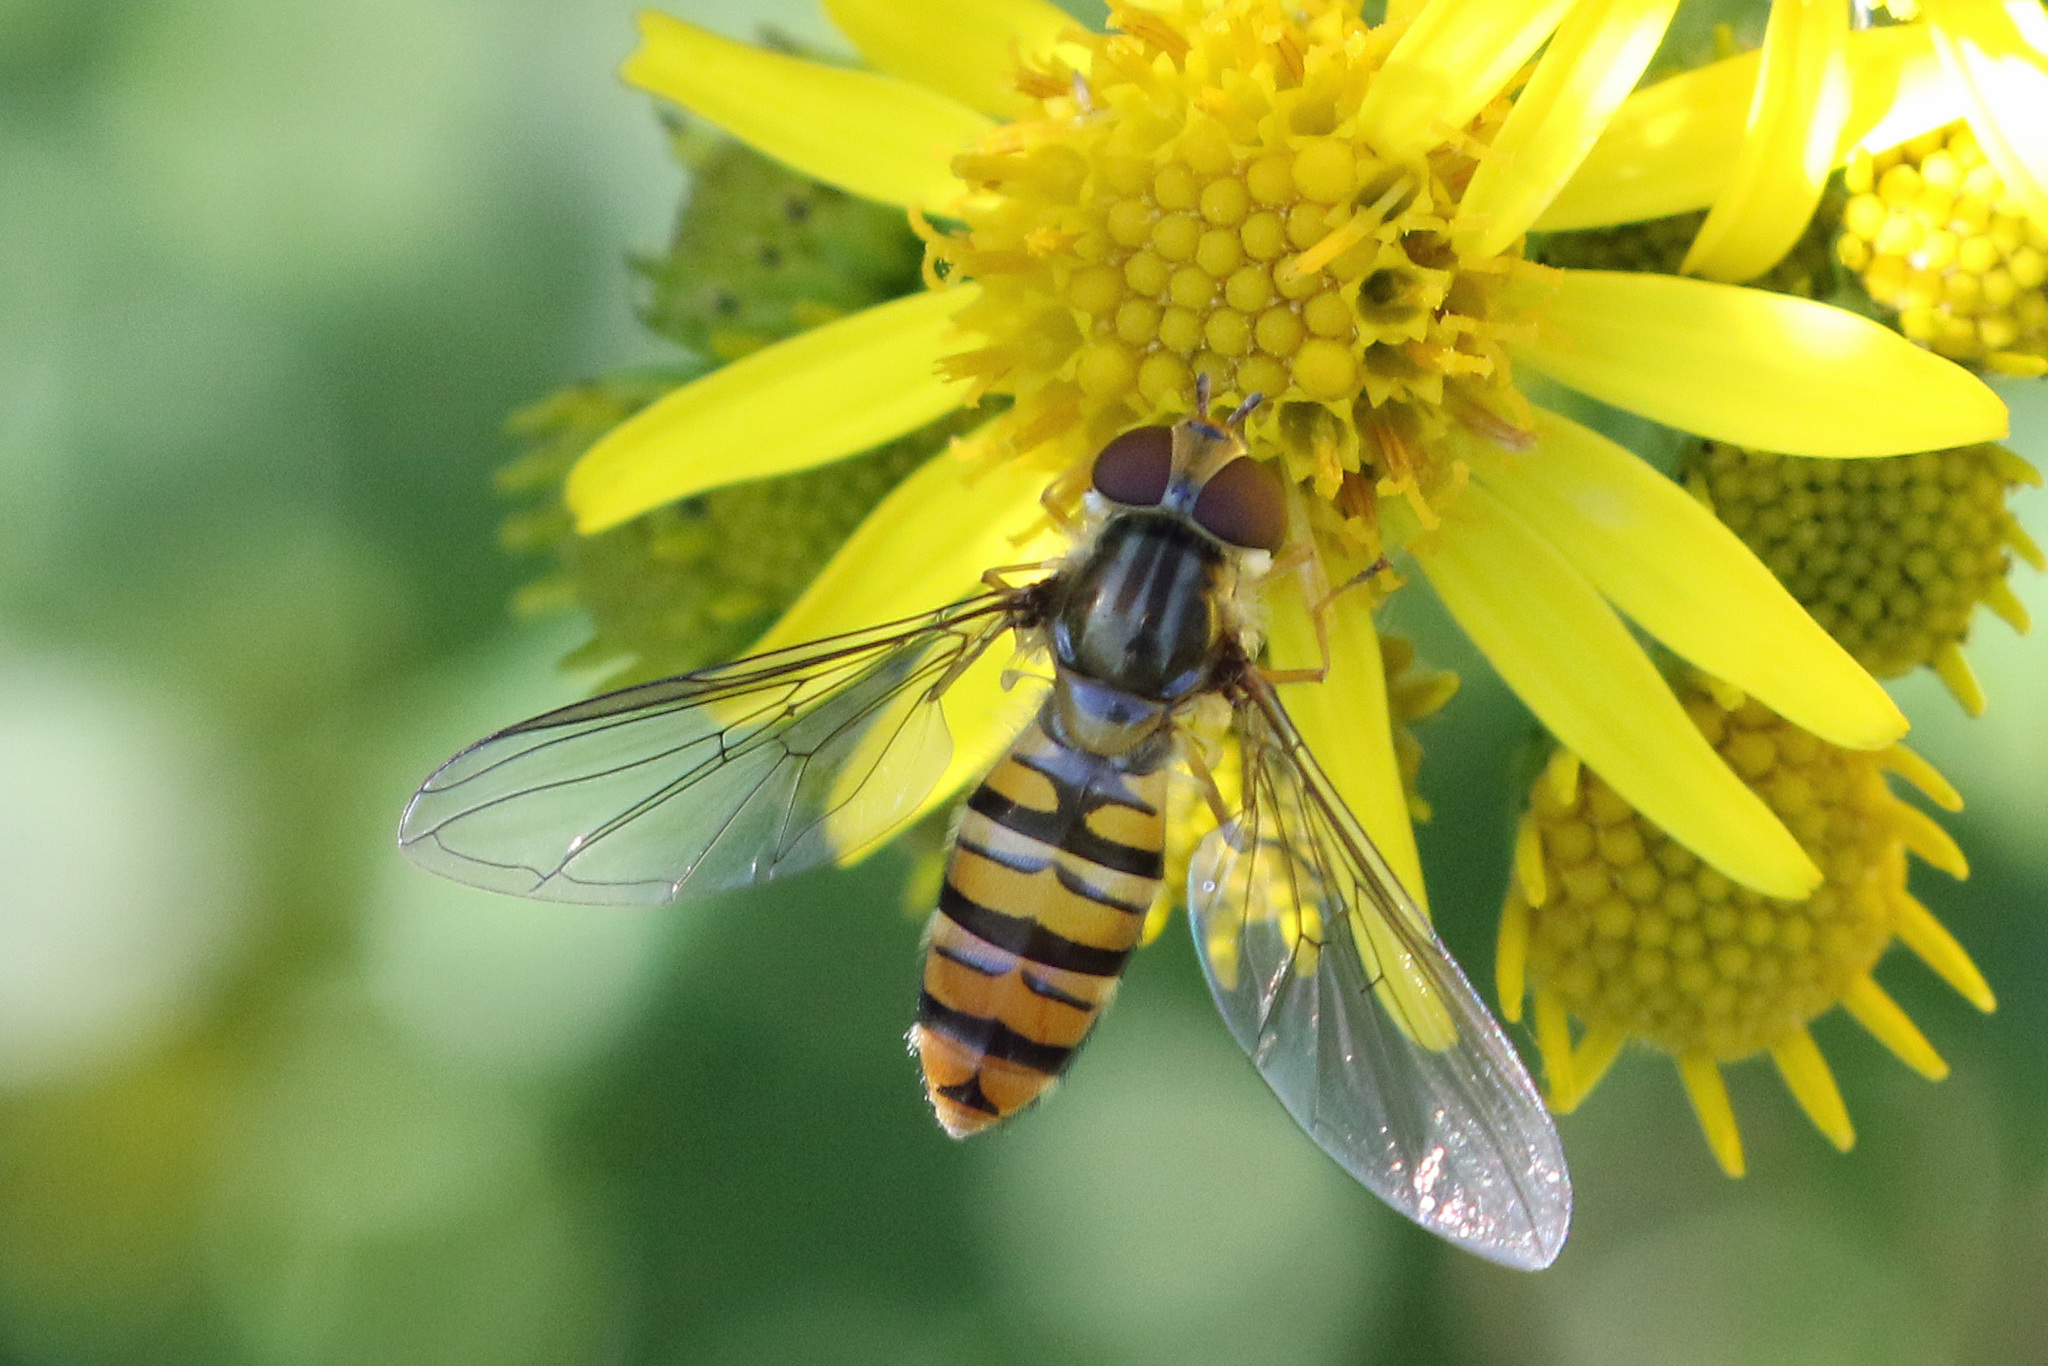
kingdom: Animalia
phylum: Arthropoda
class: Insecta
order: Diptera
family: Syrphidae
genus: Episyrphus
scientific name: Episyrphus balteatus
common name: Marmalade hoverfly
